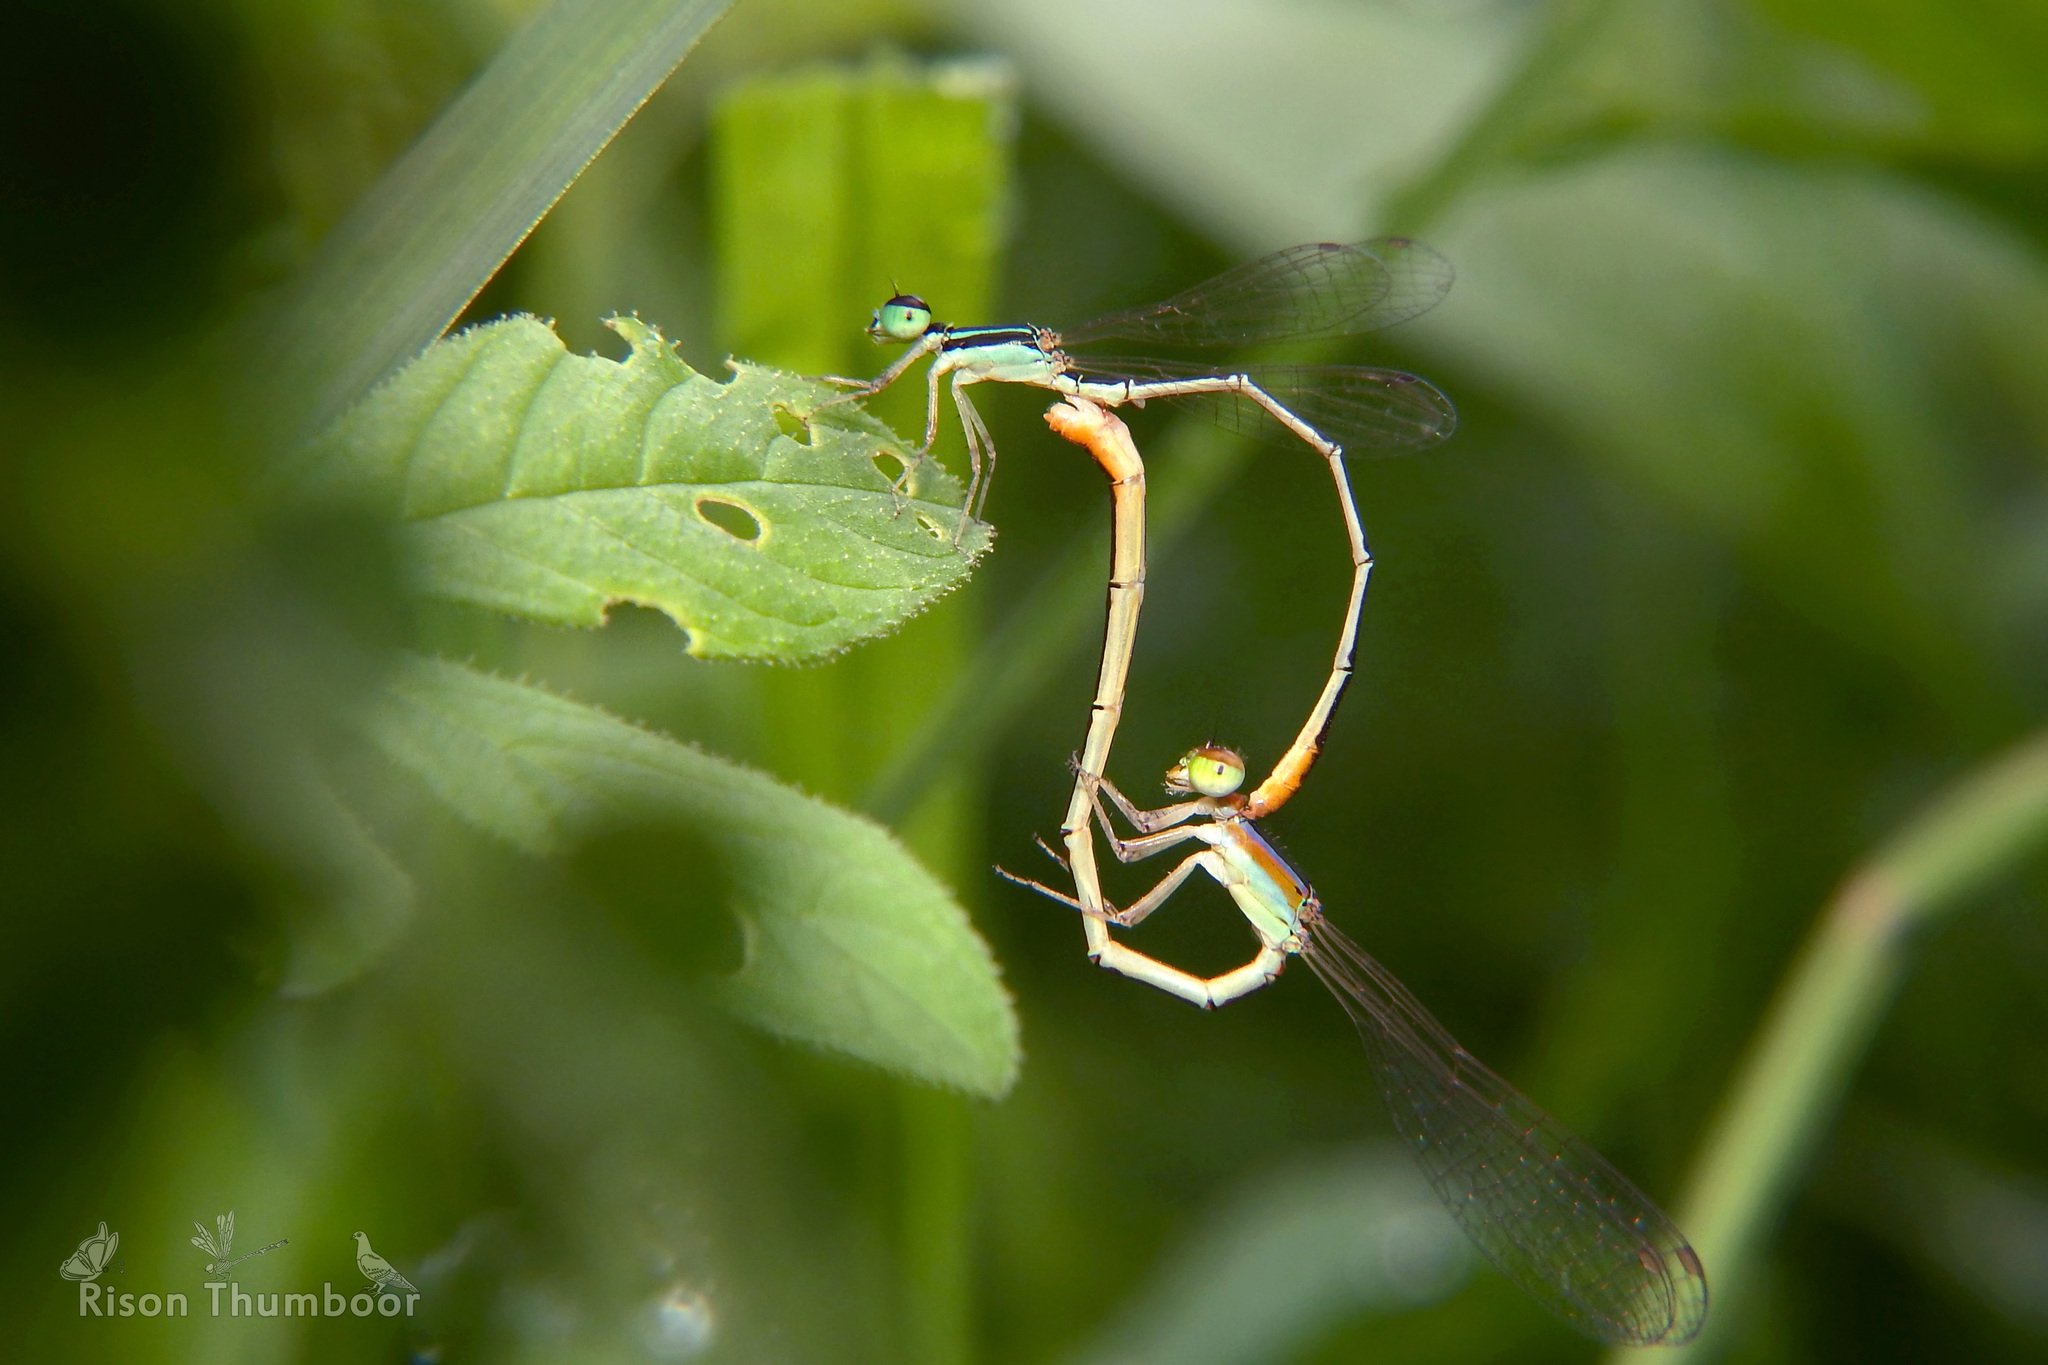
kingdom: Animalia
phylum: Arthropoda
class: Insecta
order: Odonata
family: Coenagrionidae
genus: Agriocnemis
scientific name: Agriocnemis pygmaea
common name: Pygmy wisp
